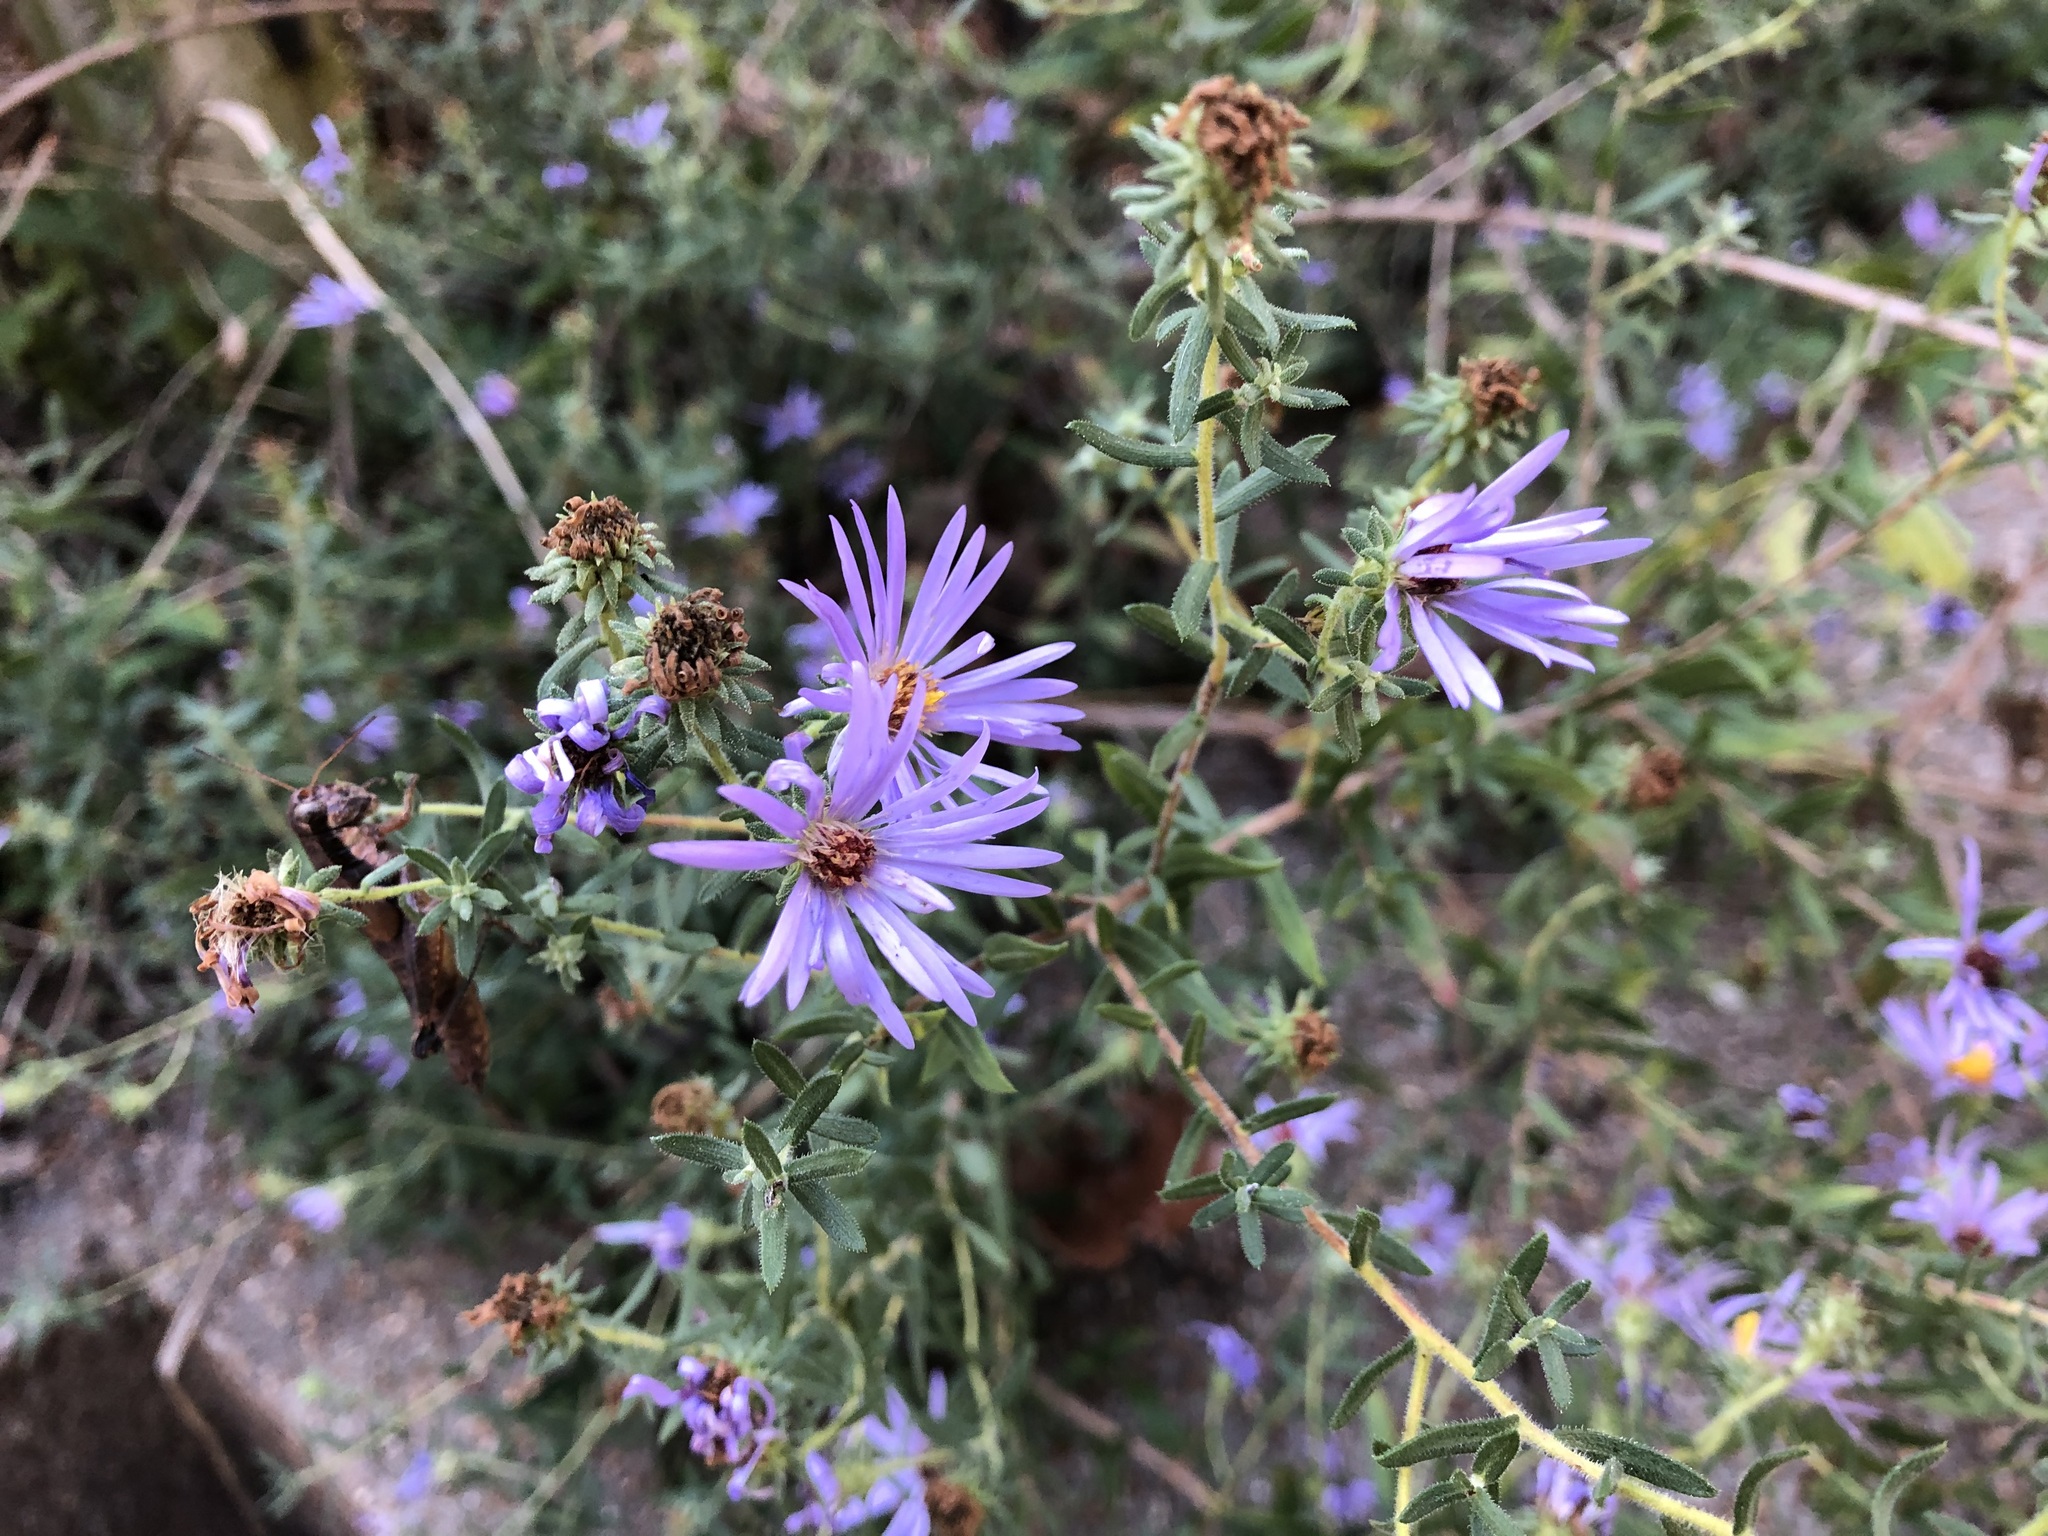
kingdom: Plantae
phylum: Tracheophyta
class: Magnoliopsida
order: Asterales
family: Asteraceae
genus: Symphyotrichum
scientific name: Symphyotrichum novae-angliae
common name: Michaelmas daisy
